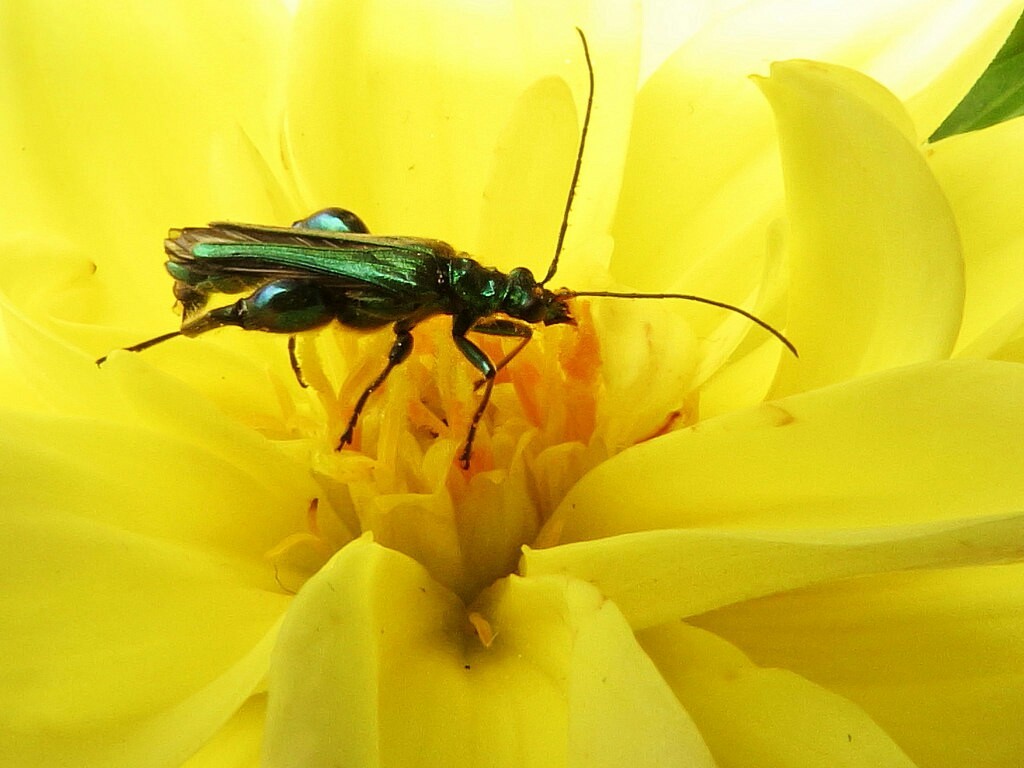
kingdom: Animalia
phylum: Arthropoda
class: Insecta
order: Coleoptera
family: Oedemeridae
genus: Oedemera
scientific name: Oedemera nobilis
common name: Swollen-thighed beetle
